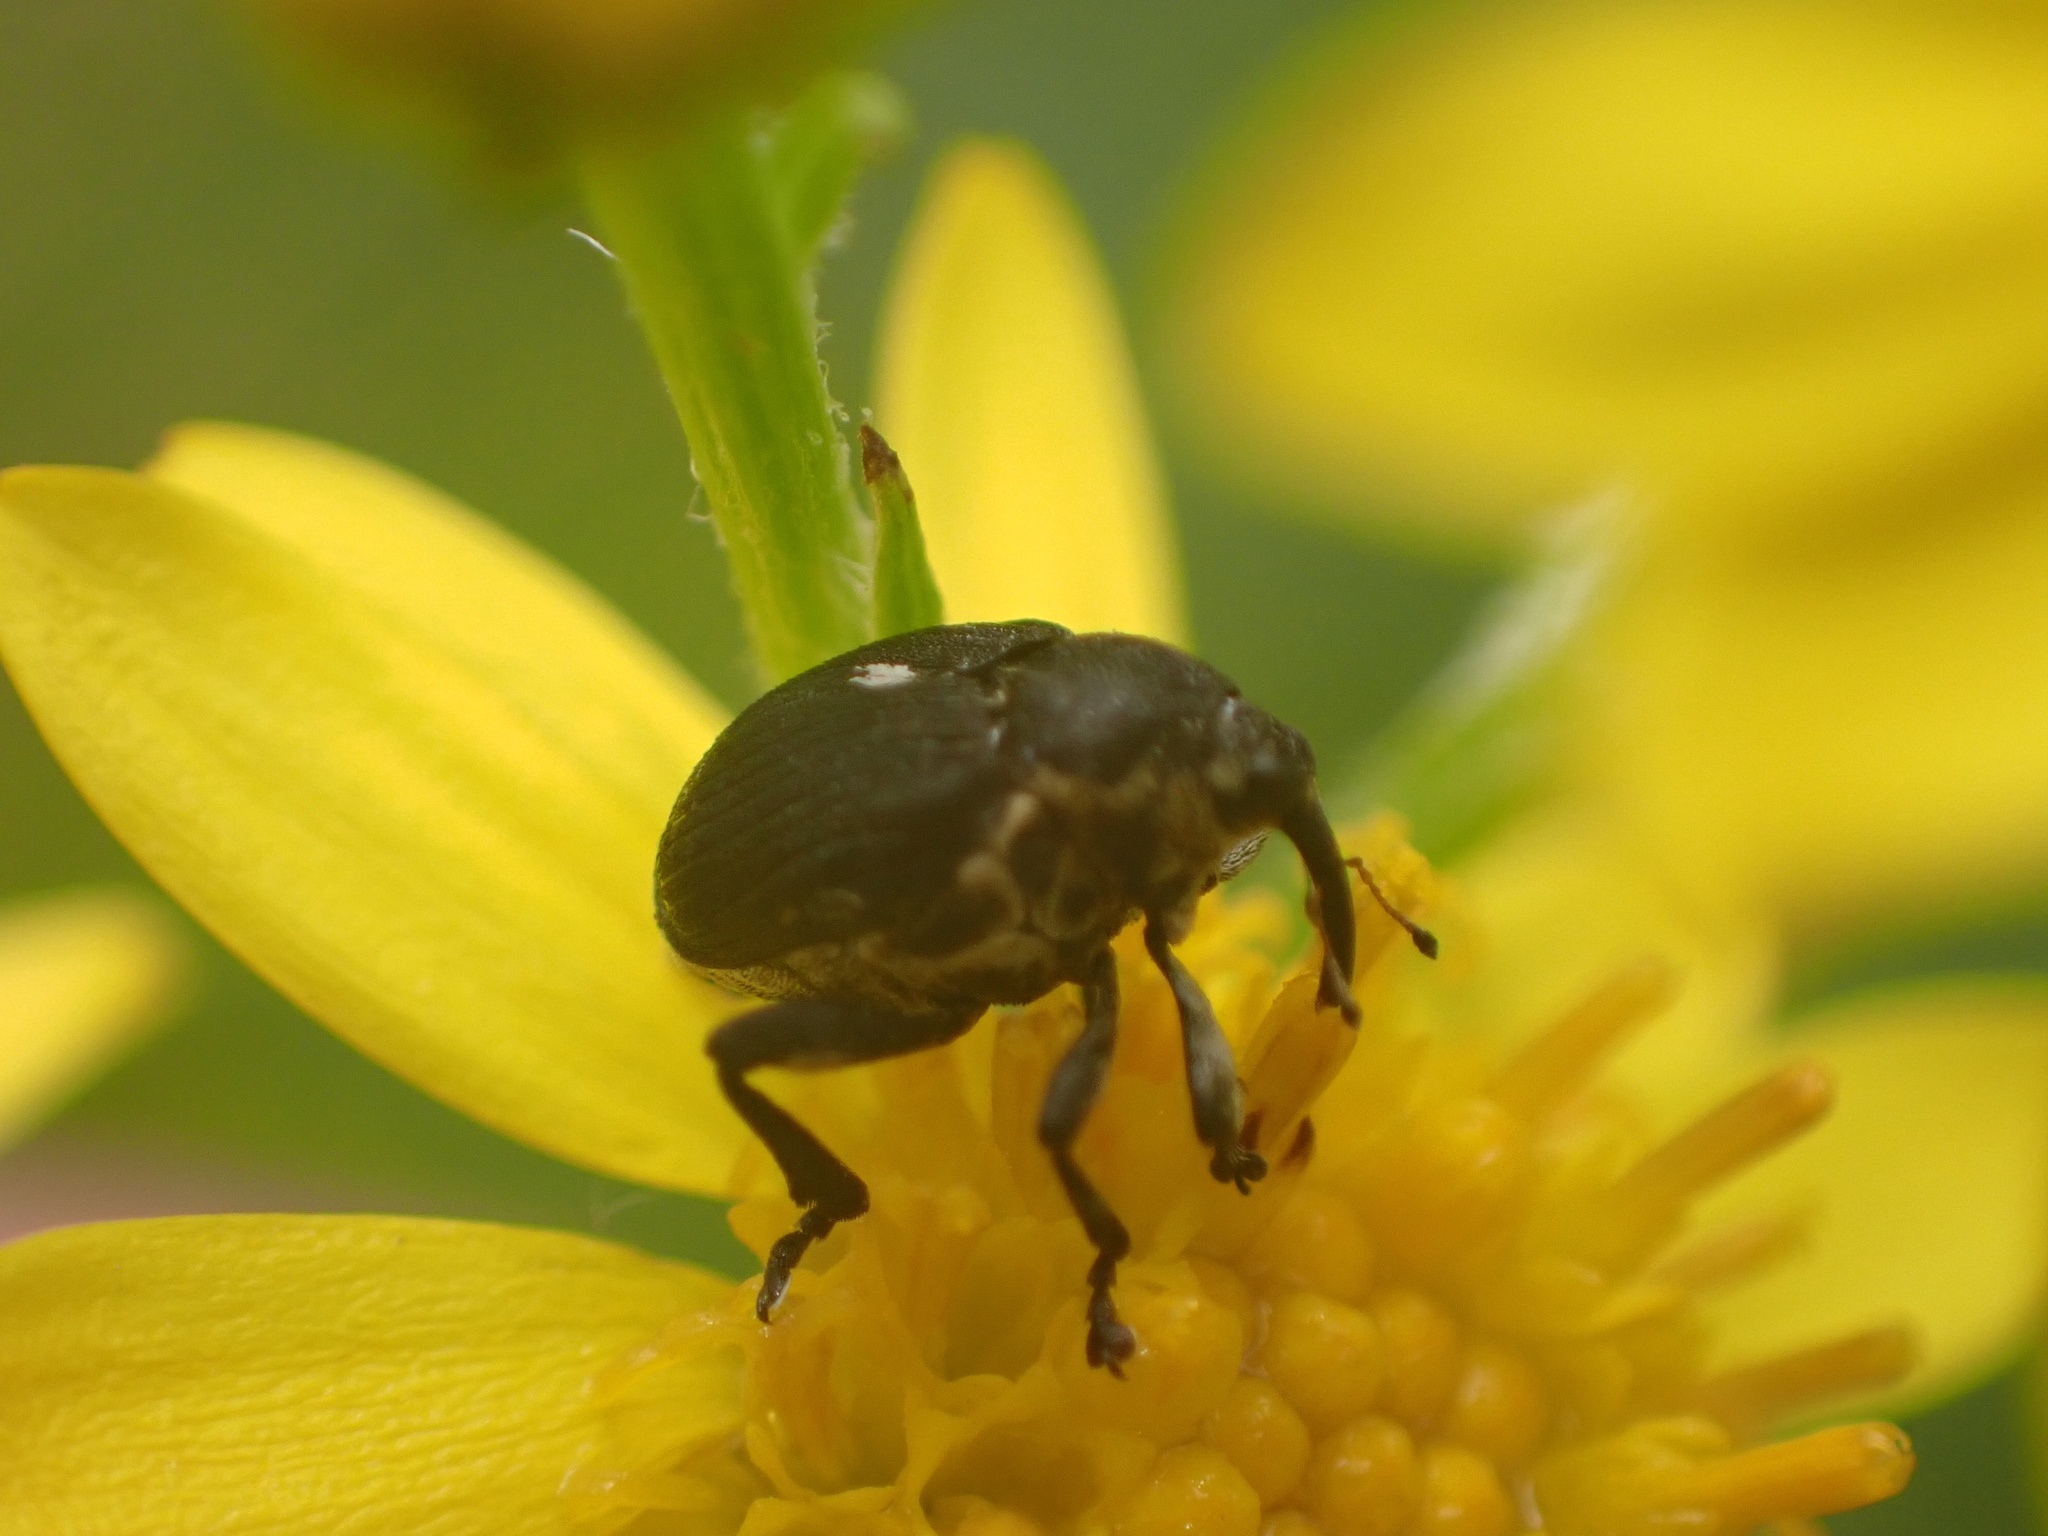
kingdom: Animalia
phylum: Arthropoda
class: Insecta
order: Coleoptera
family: Curculionidae
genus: Mononychus
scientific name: Mononychus punctumalbum
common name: Iris weevil
